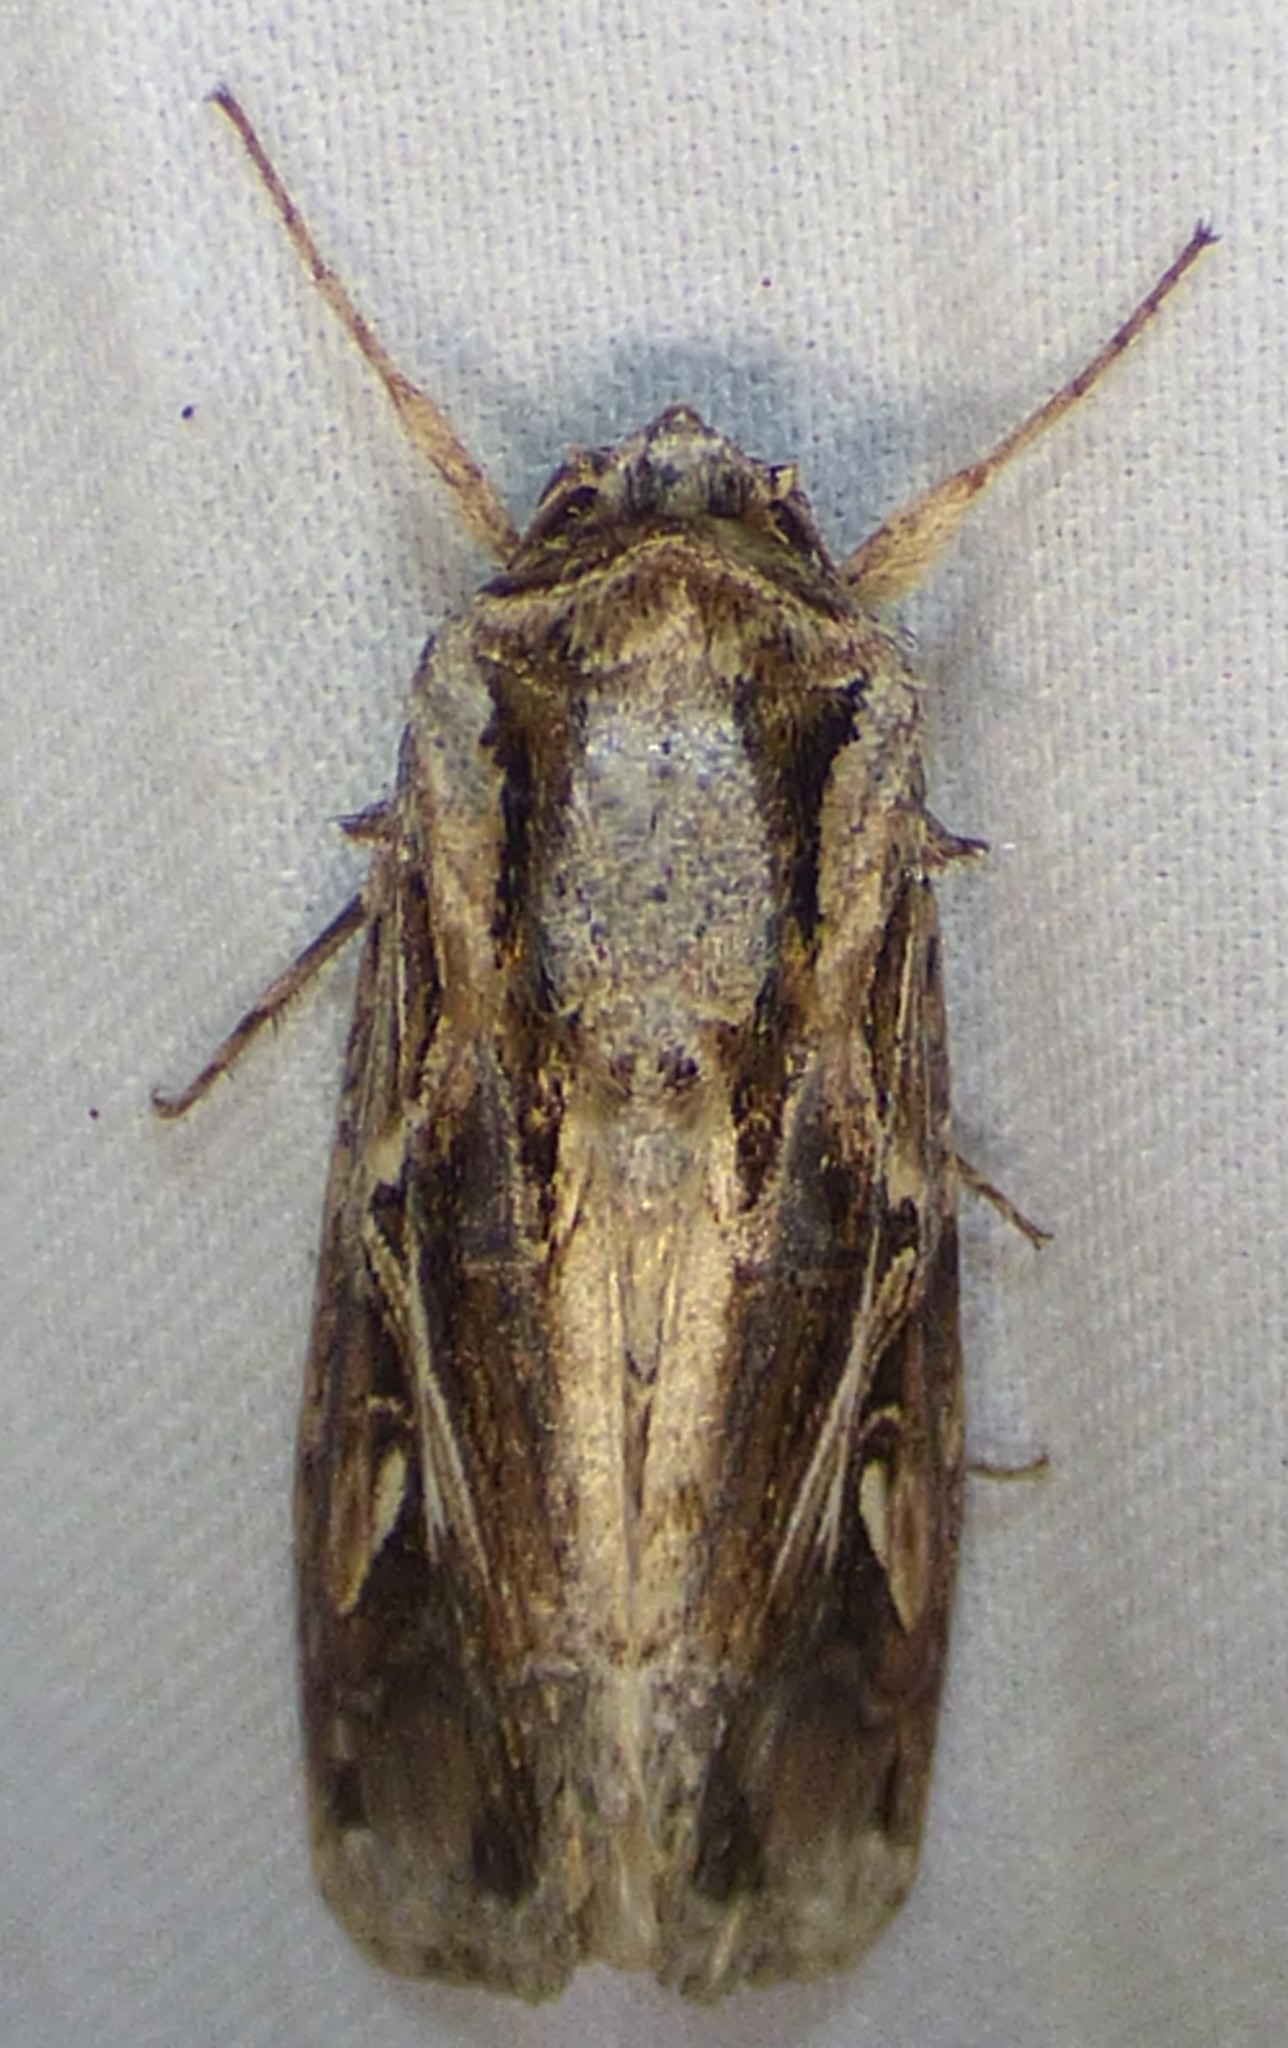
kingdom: Animalia
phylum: Arthropoda
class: Insecta
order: Lepidoptera
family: Noctuidae
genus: Spodoptera
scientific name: Spodoptera dolichos
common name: Sweetpotato armyworm
